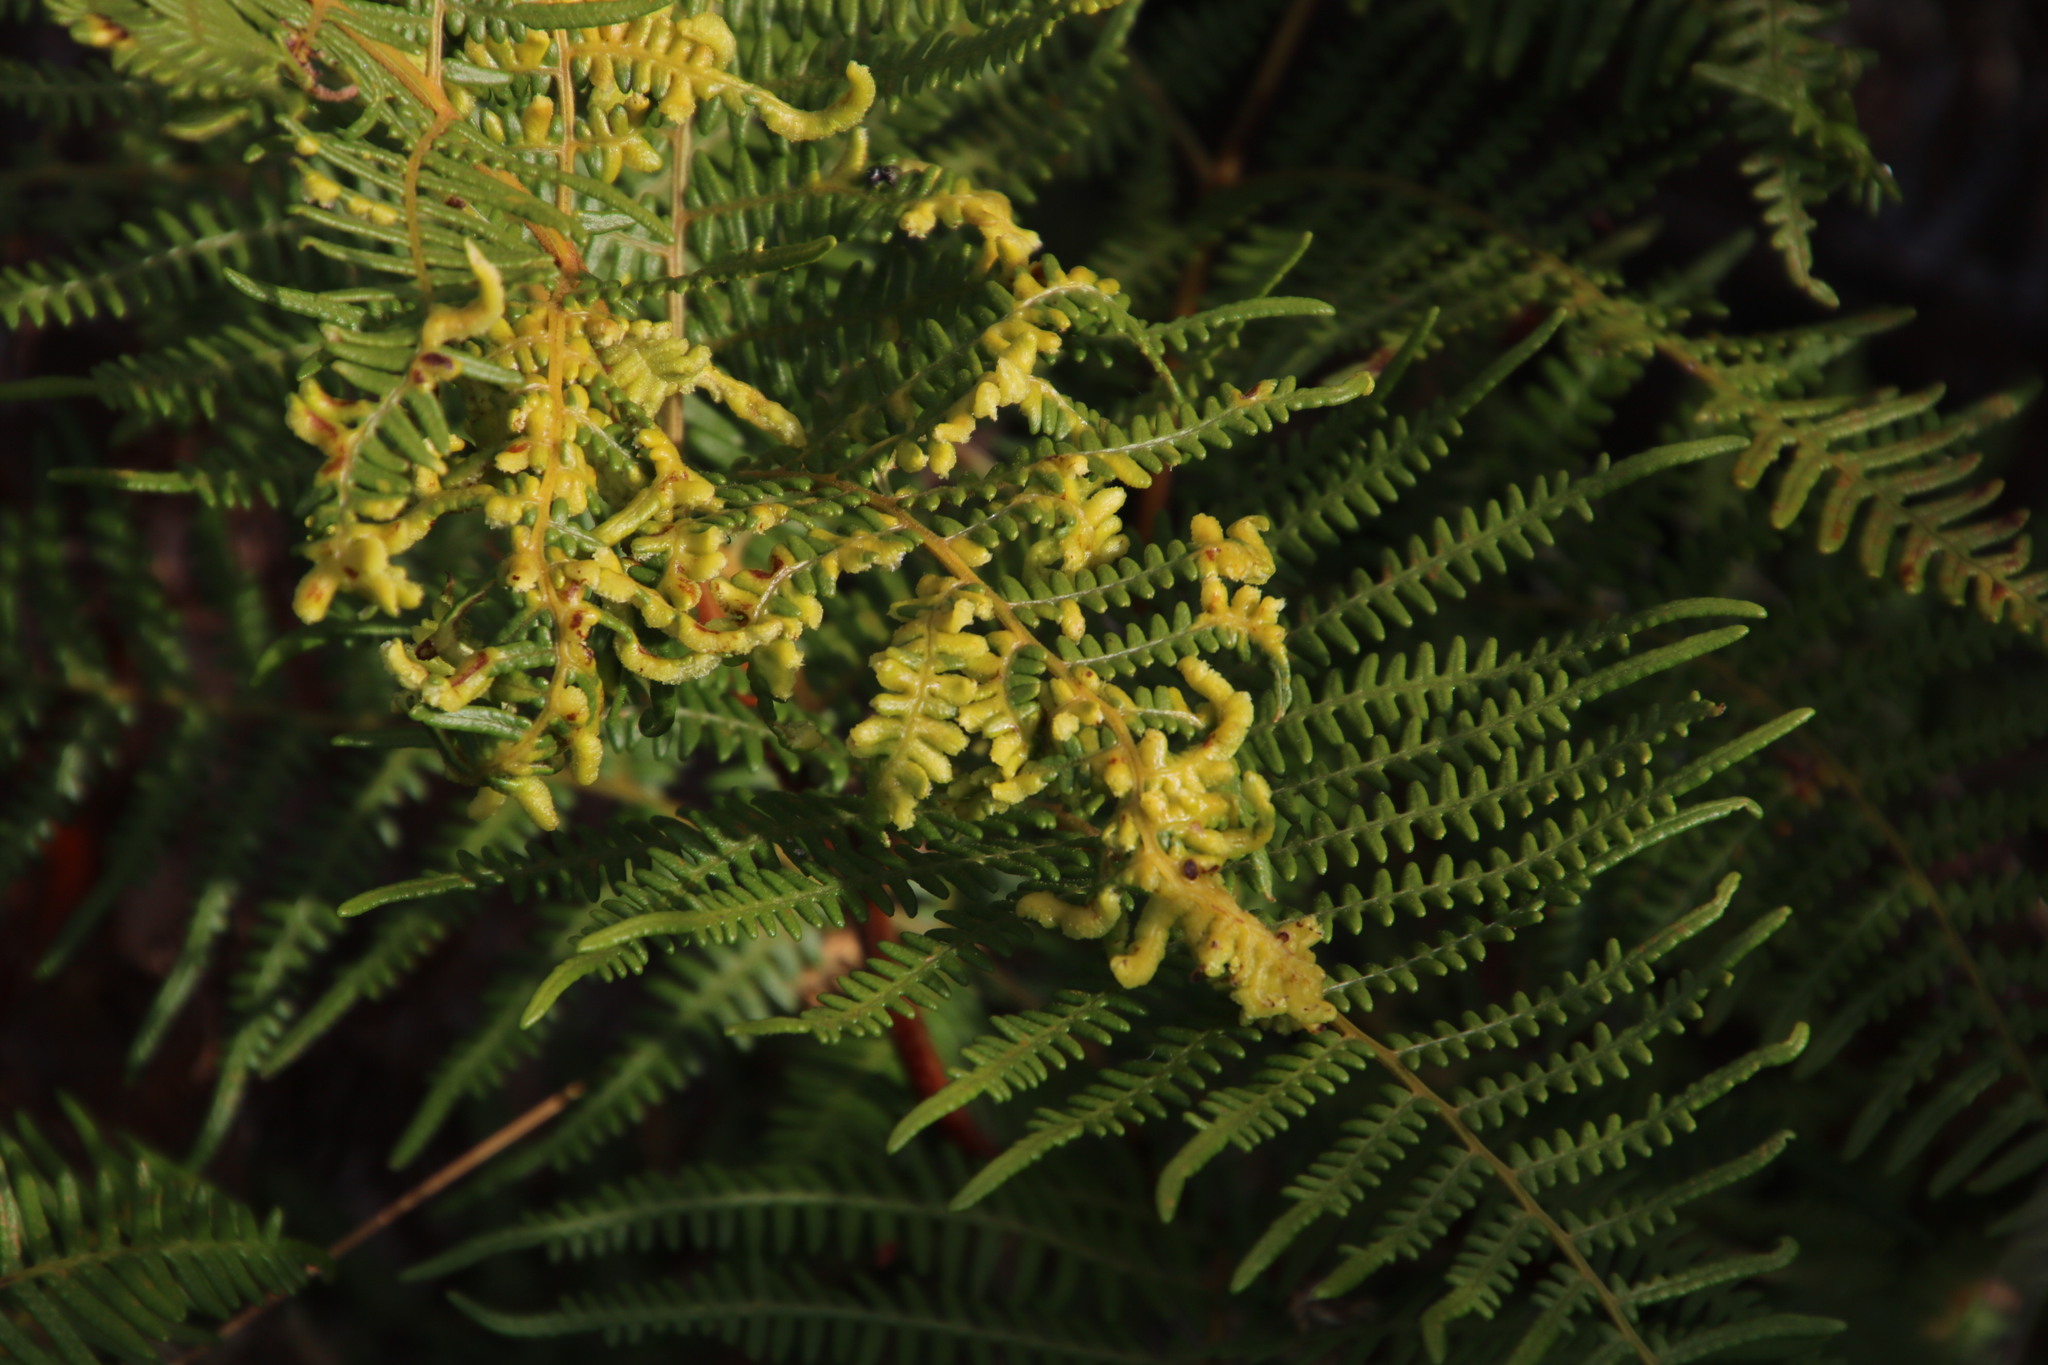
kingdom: Plantae
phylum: Tracheophyta
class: Polypodiopsida
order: Polypodiales
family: Dennstaedtiaceae
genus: Pteridium
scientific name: Pteridium aquilinum
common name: Bracken
